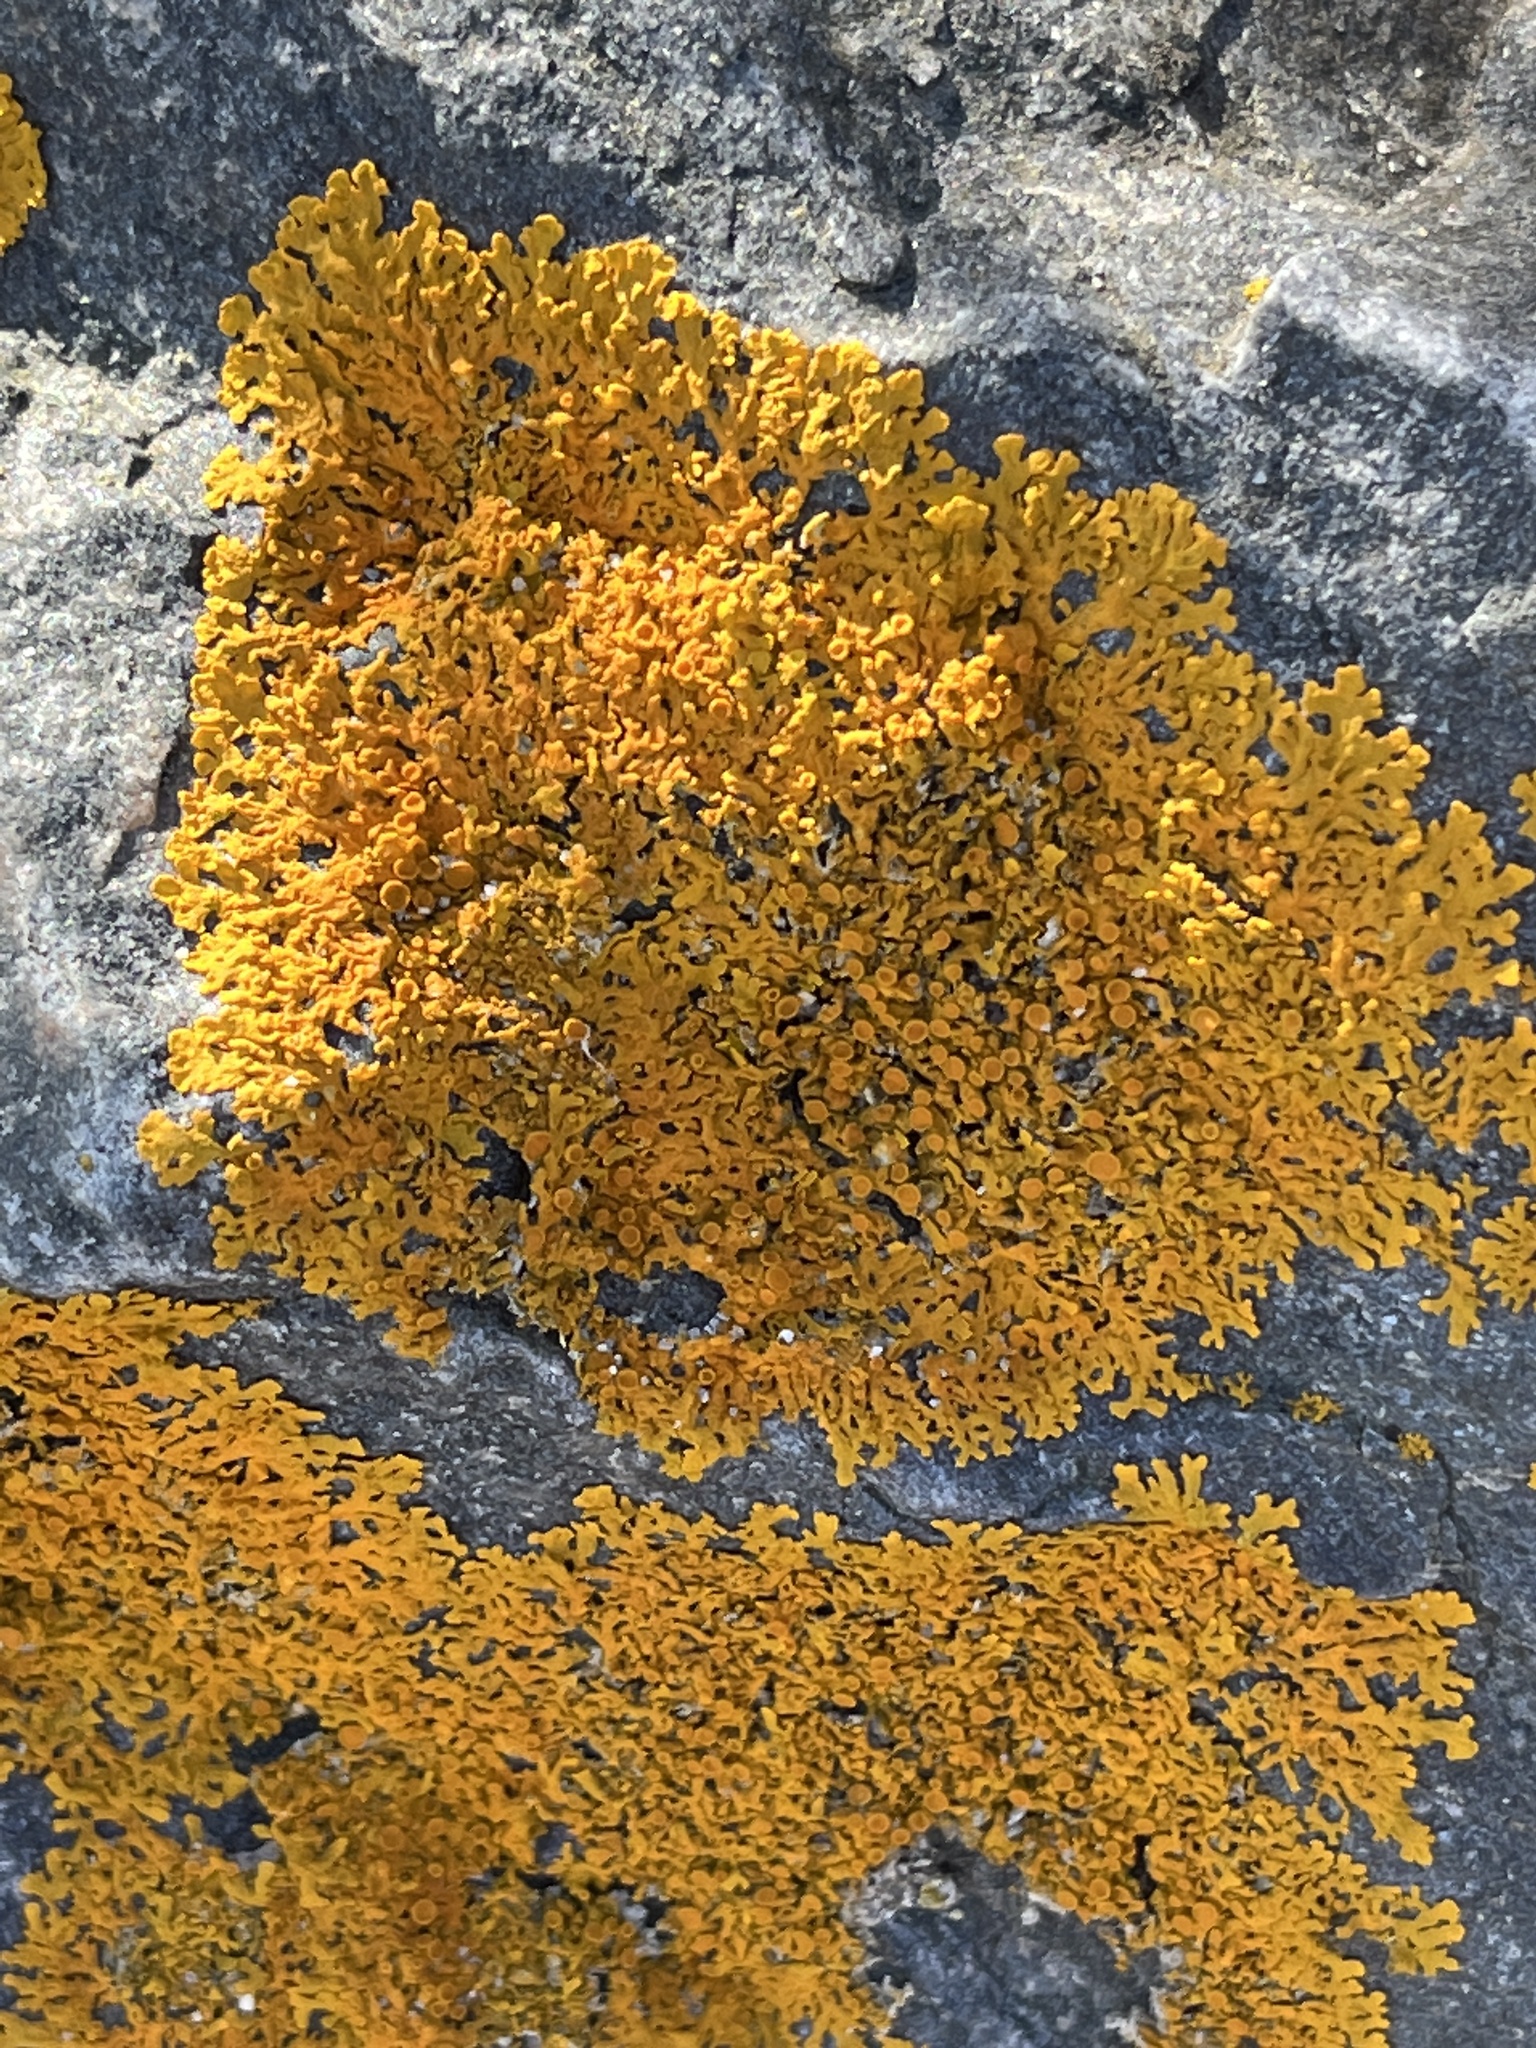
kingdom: Fungi
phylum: Ascomycota
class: Lecanoromycetes
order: Teloschistales
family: Teloschistaceae
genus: Xanthoria
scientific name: Xanthoria parietina
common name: Common orange lichen
